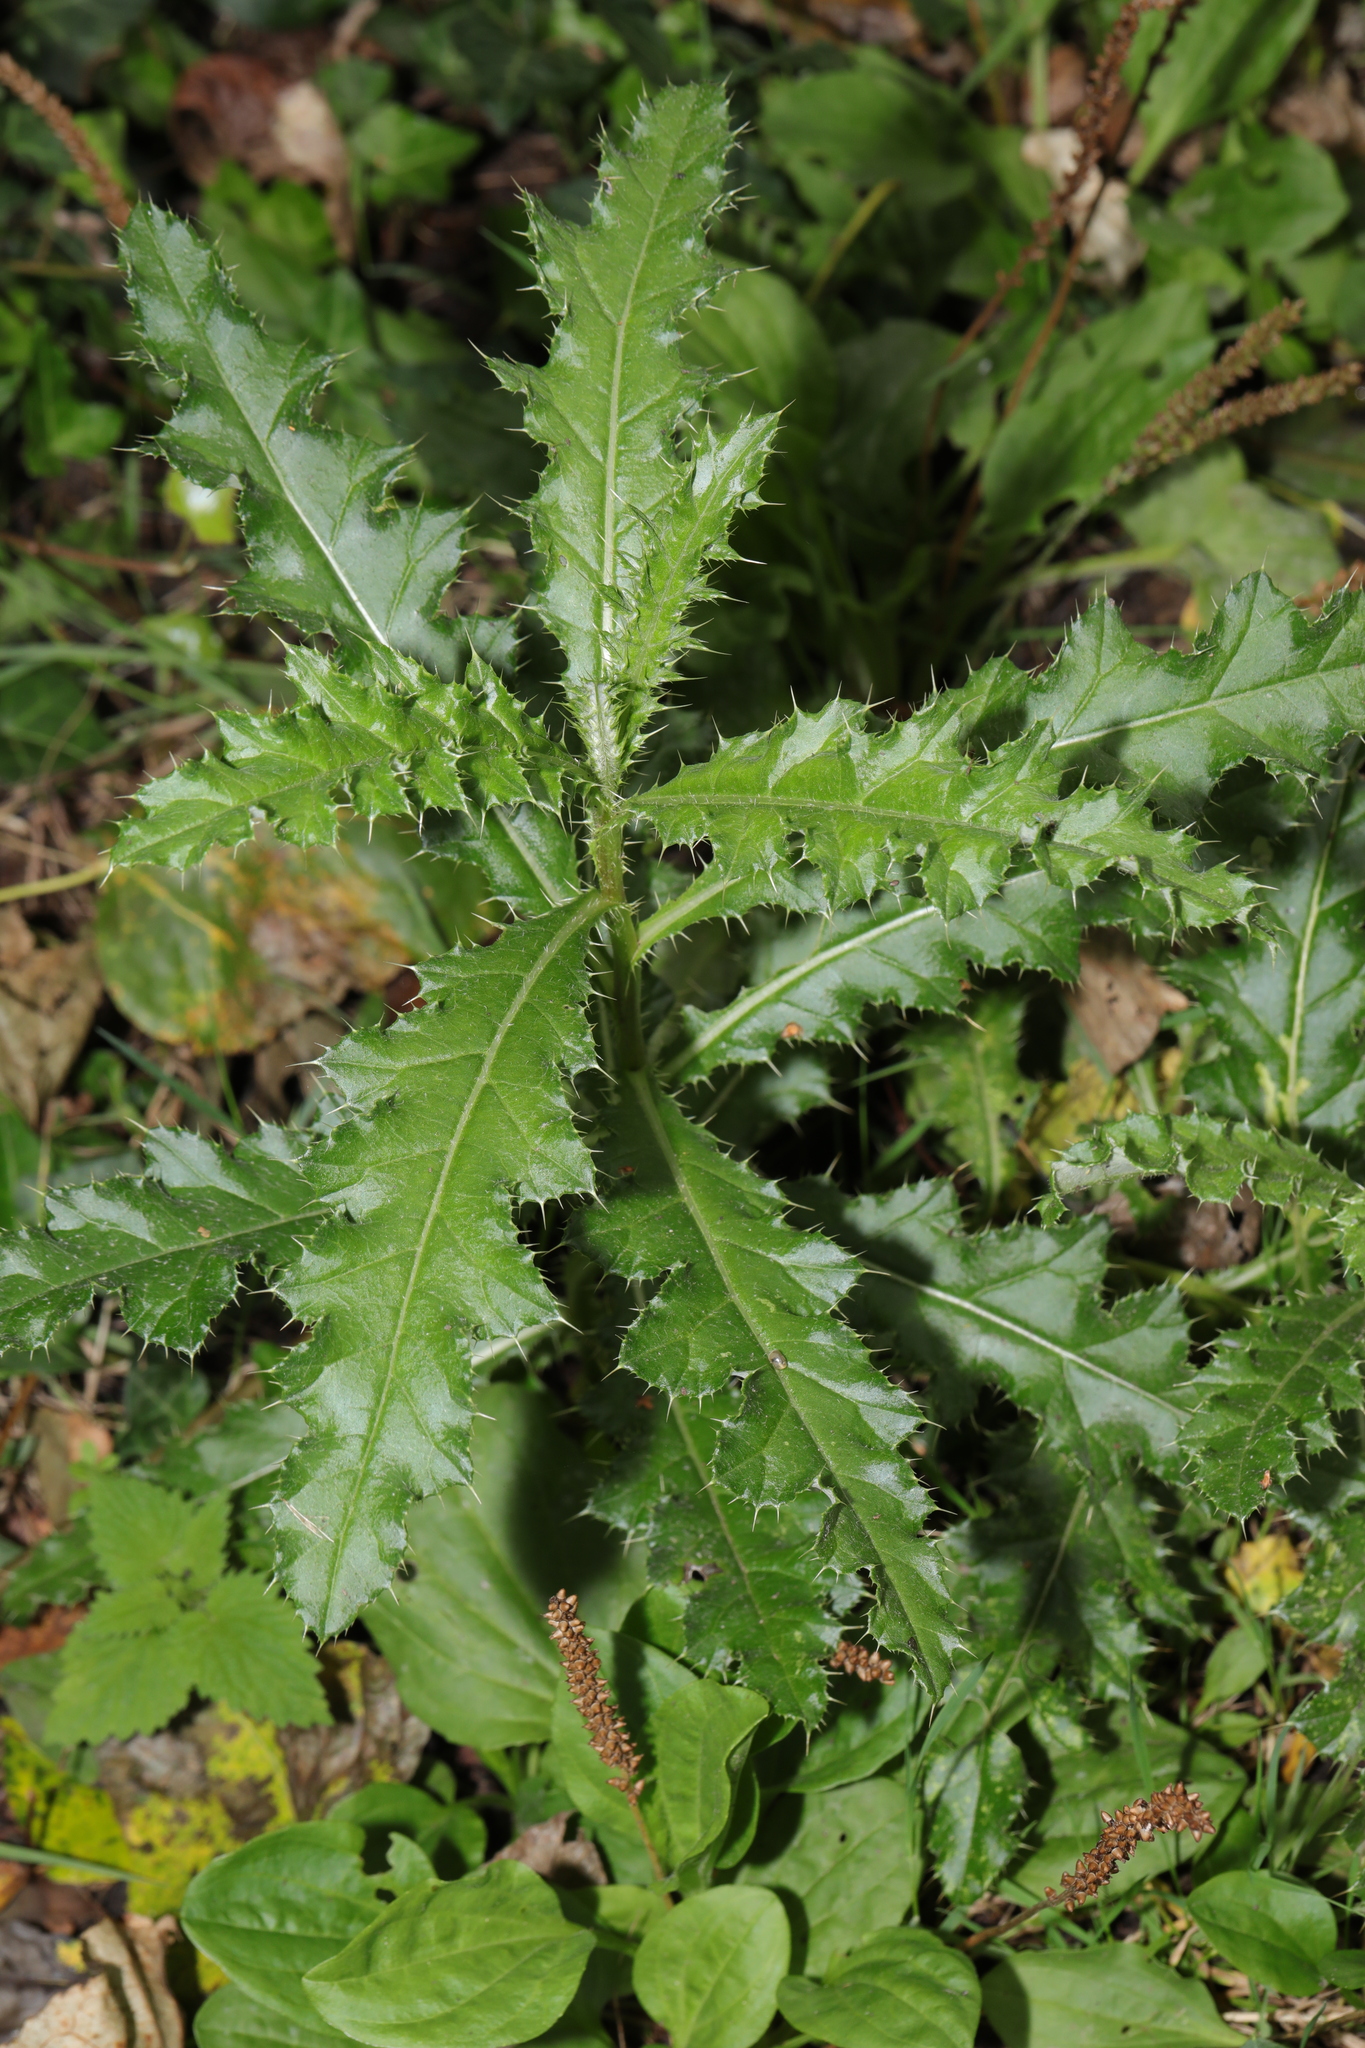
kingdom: Plantae
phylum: Tracheophyta
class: Magnoliopsida
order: Asterales
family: Asteraceae
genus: Cirsium
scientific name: Cirsium arvense
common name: Creeping thistle
